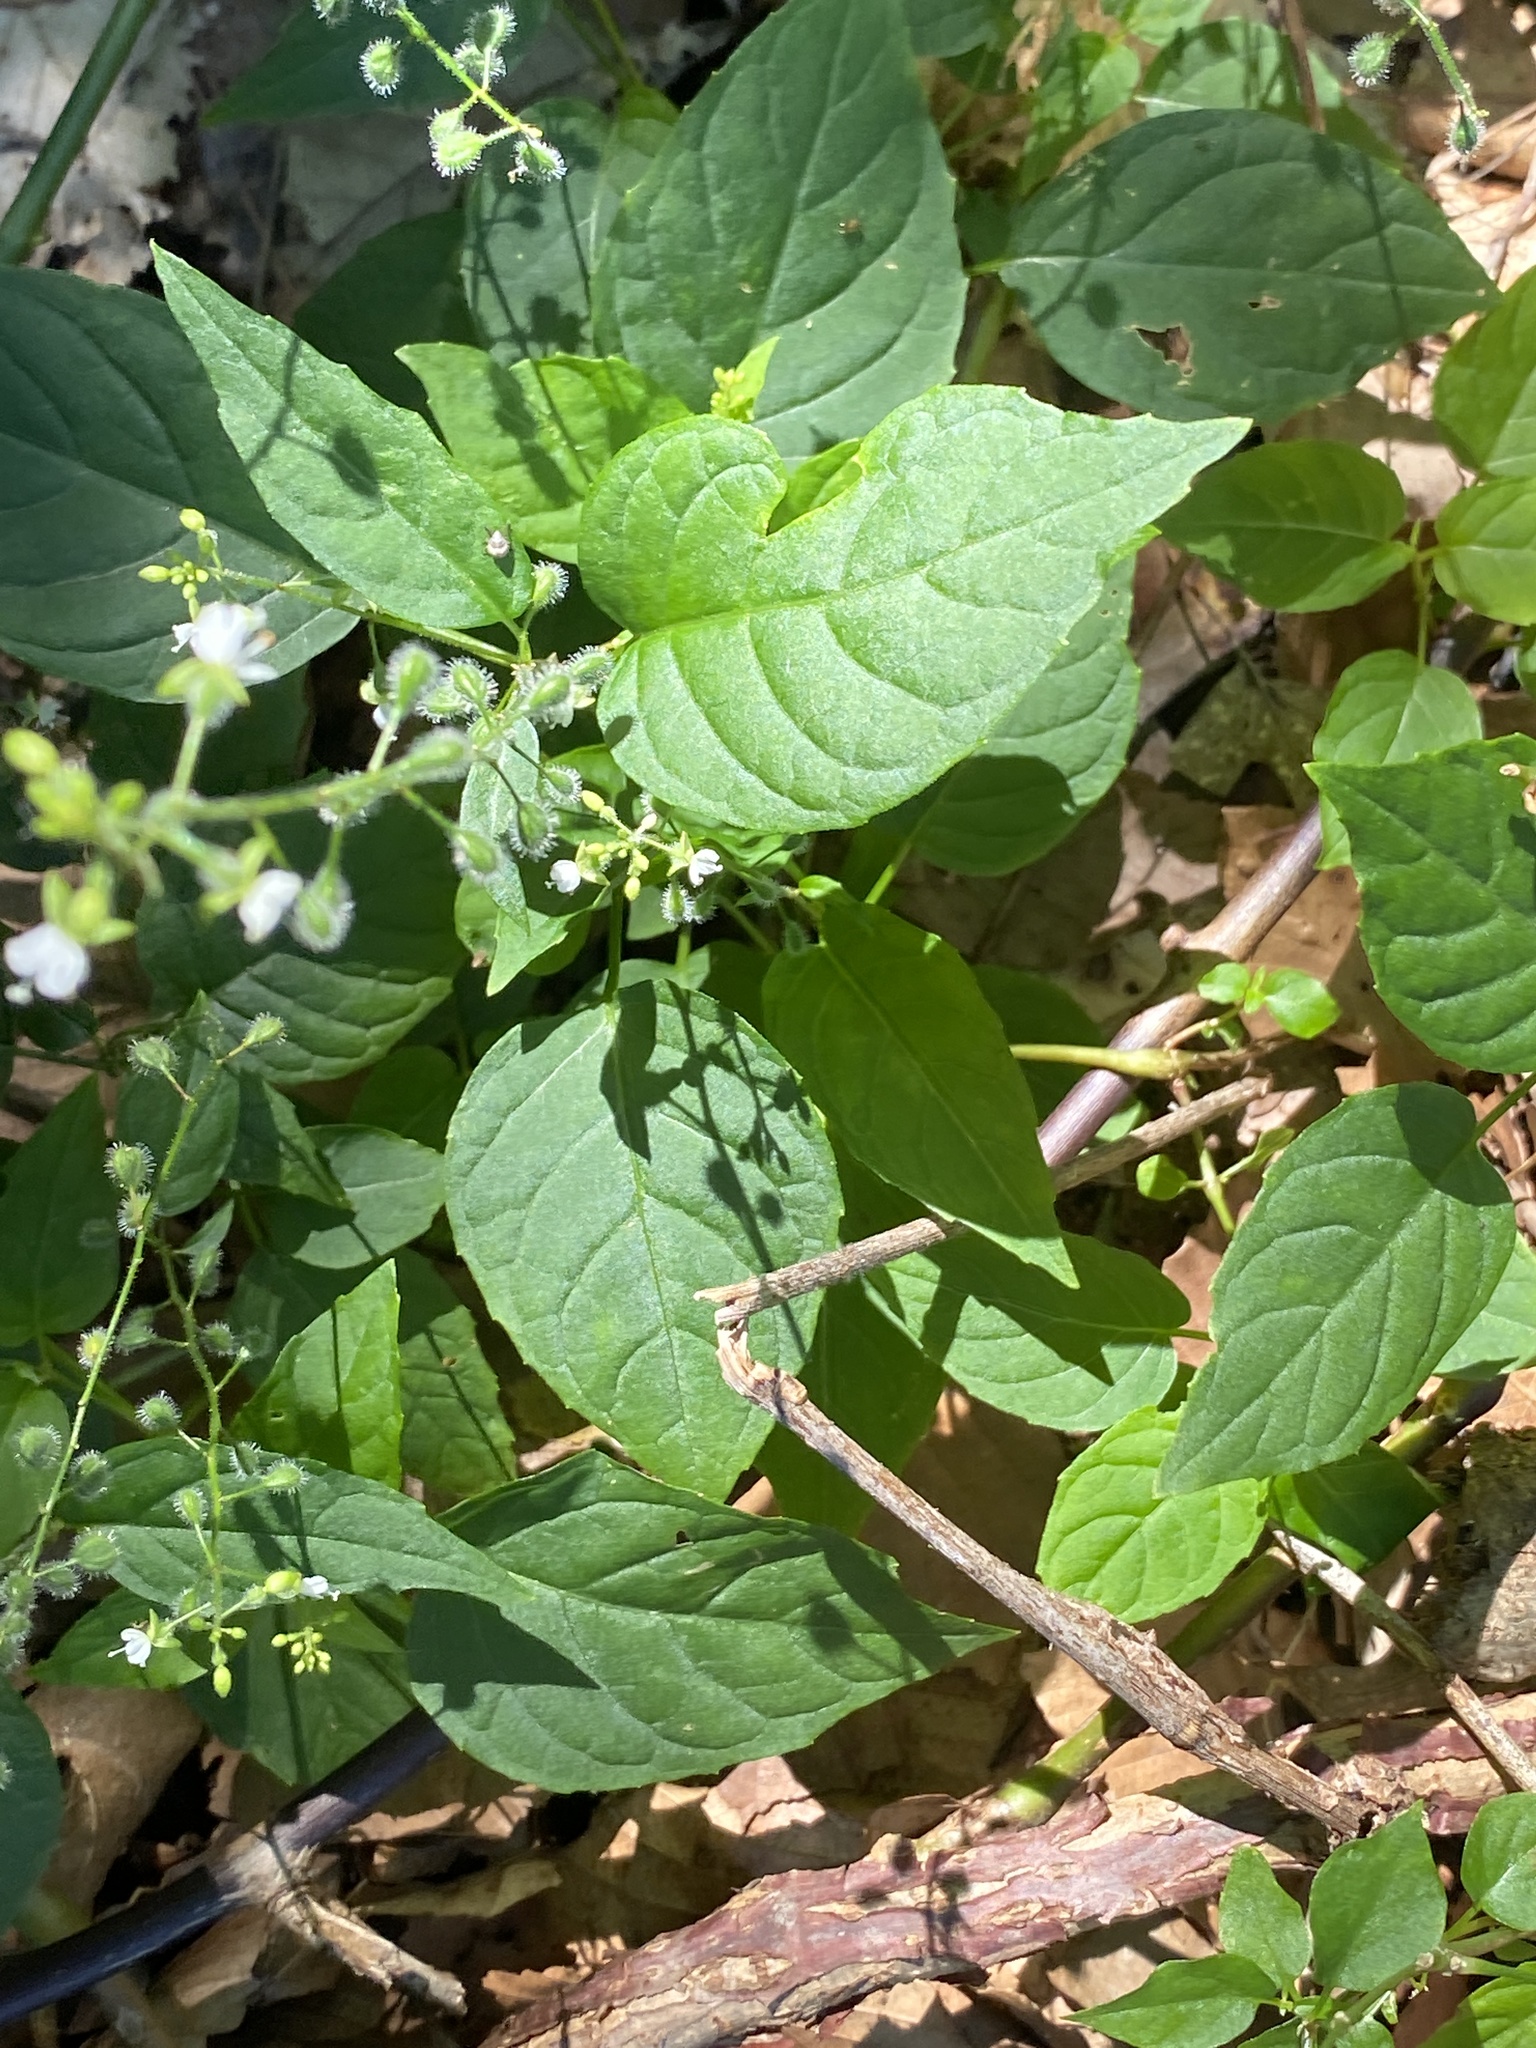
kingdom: Plantae
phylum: Tracheophyta
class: Magnoliopsida
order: Myrtales
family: Onagraceae
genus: Circaea
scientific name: Circaea canadensis
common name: Broad-leaved enchanter's nightshade
